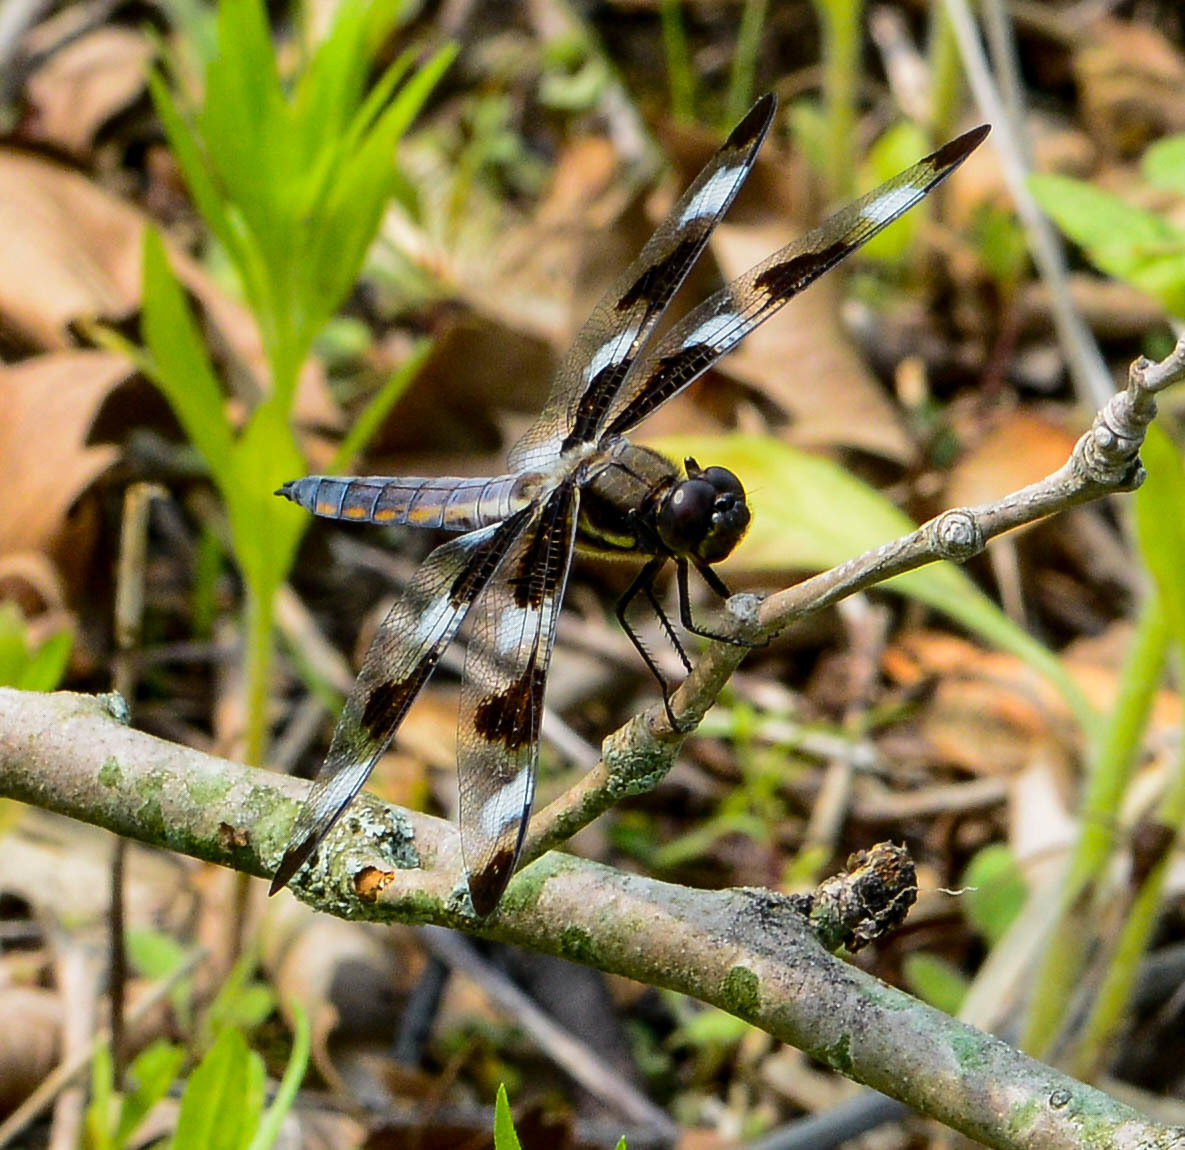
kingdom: Animalia
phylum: Arthropoda
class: Insecta
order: Odonata
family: Libellulidae
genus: Libellula
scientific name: Libellula pulchella
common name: Twelve-spotted skimmer
